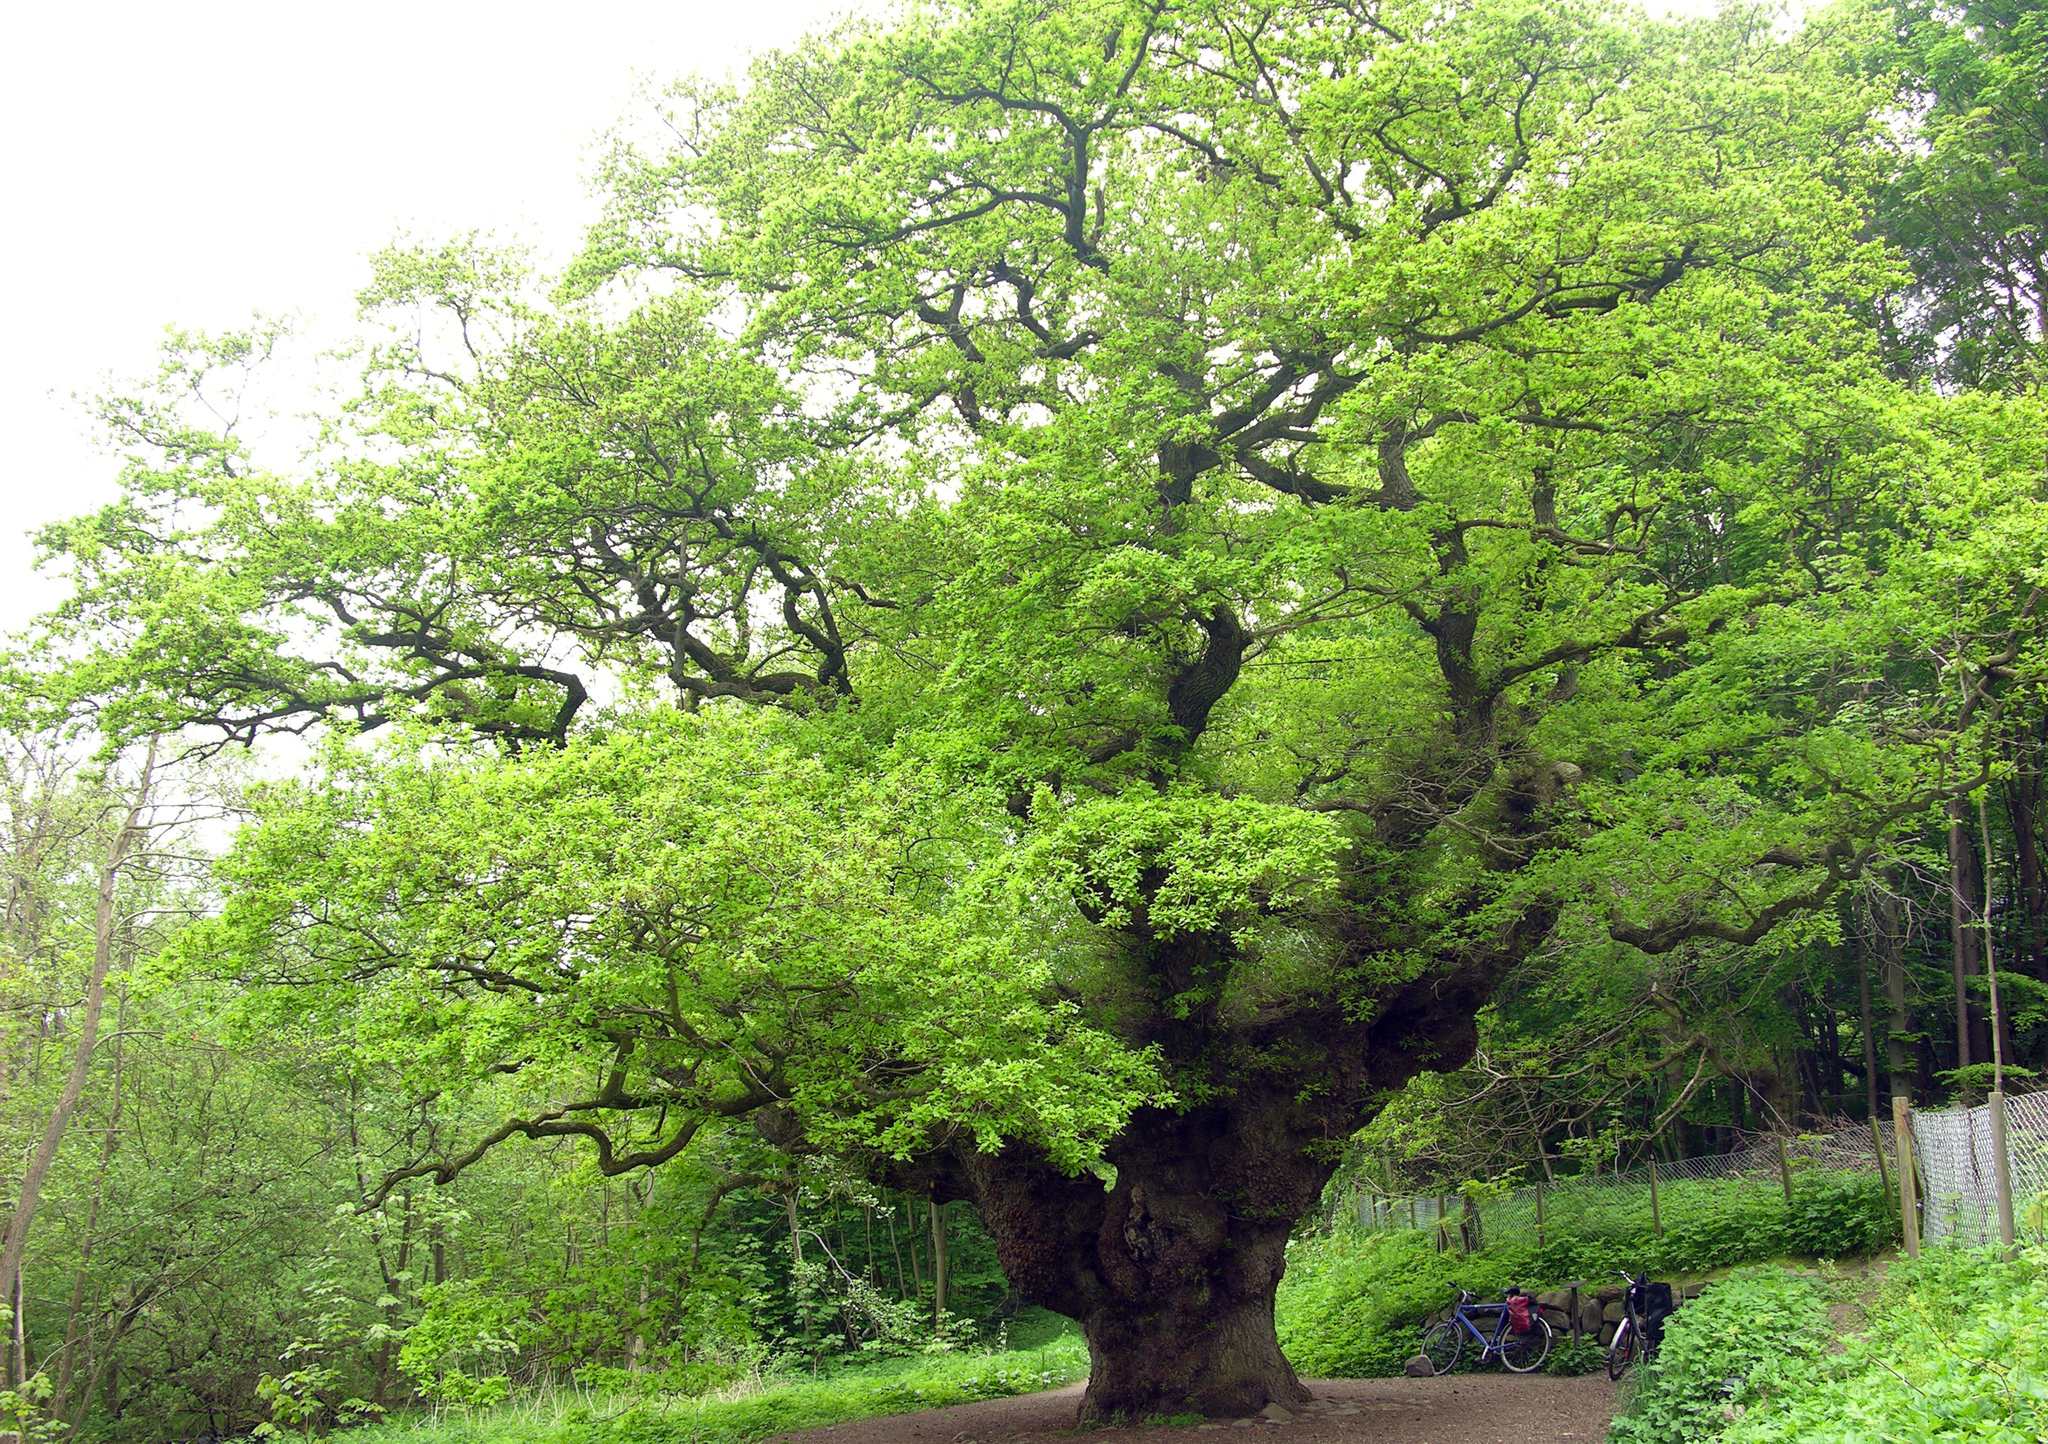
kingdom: Plantae
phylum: Tracheophyta
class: Magnoliopsida
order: Fagales
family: Fagaceae
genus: Quercus
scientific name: Quercus robur
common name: Pedunculate oak
